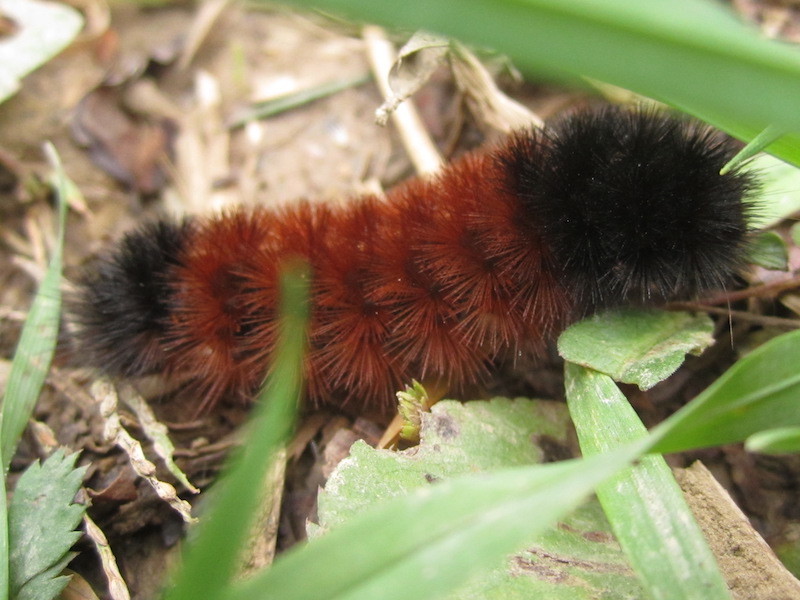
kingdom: Animalia
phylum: Arthropoda
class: Insecta
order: Lepidoptera
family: Erebidae
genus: Pyrrharctia
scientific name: Pyrrharctia isabella
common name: Isabella tiger moth
